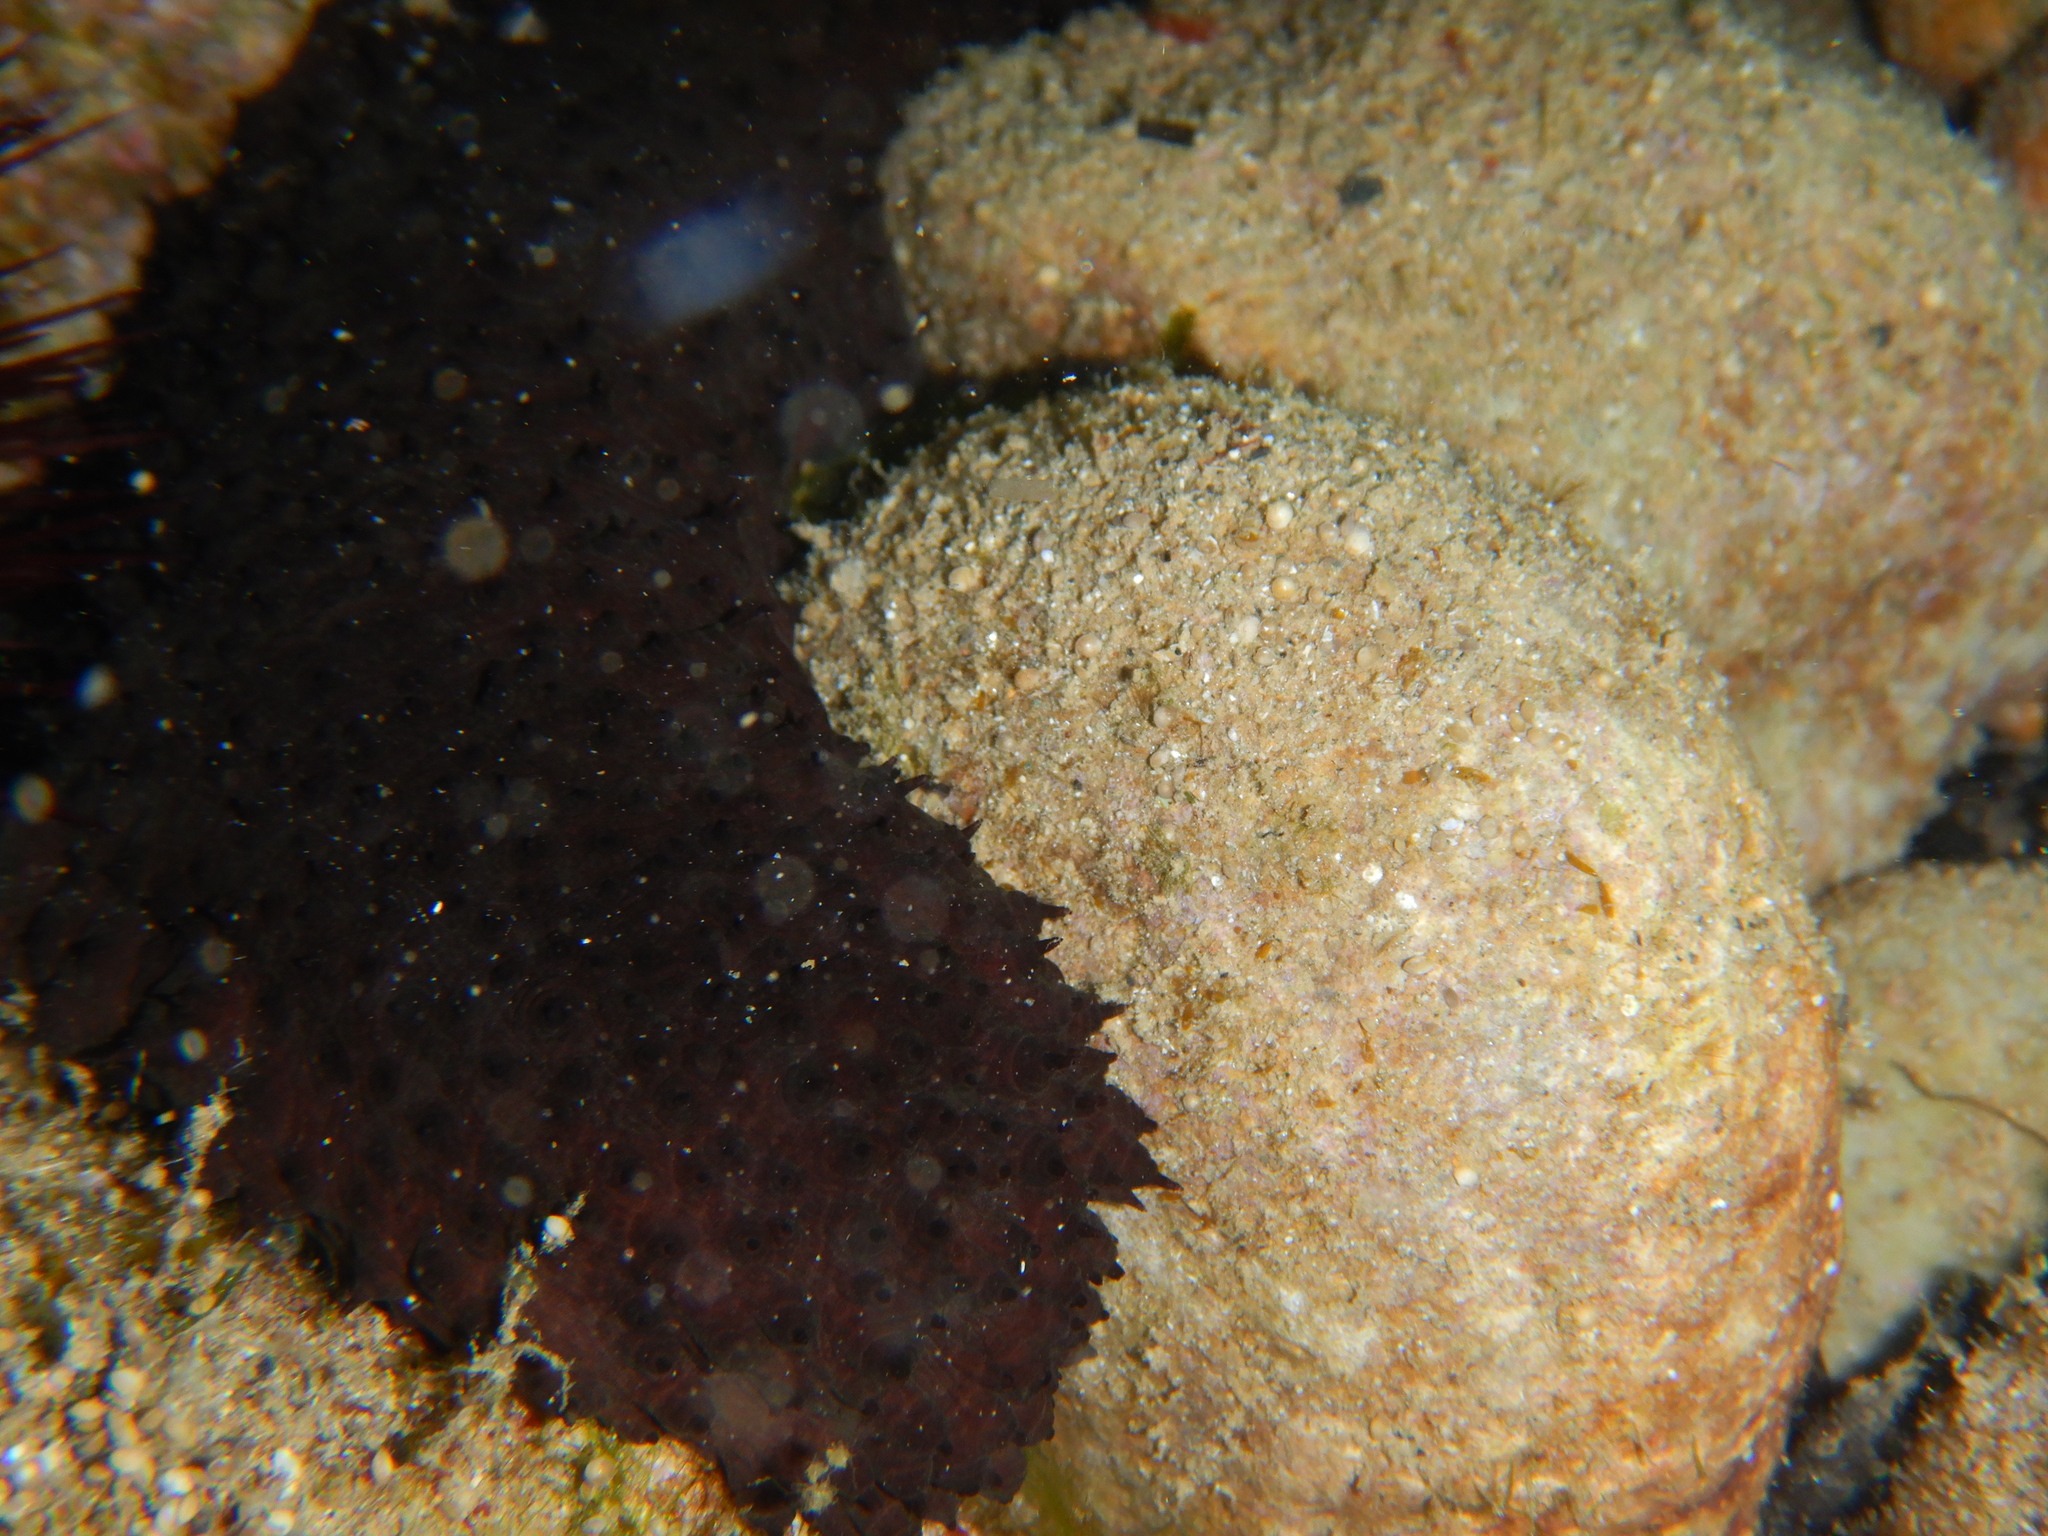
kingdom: Animalia
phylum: Echinodermata
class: Holothuroidea
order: Holothuriida
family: Holothuriidae
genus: Holothuria
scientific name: Holothuria sanctori
